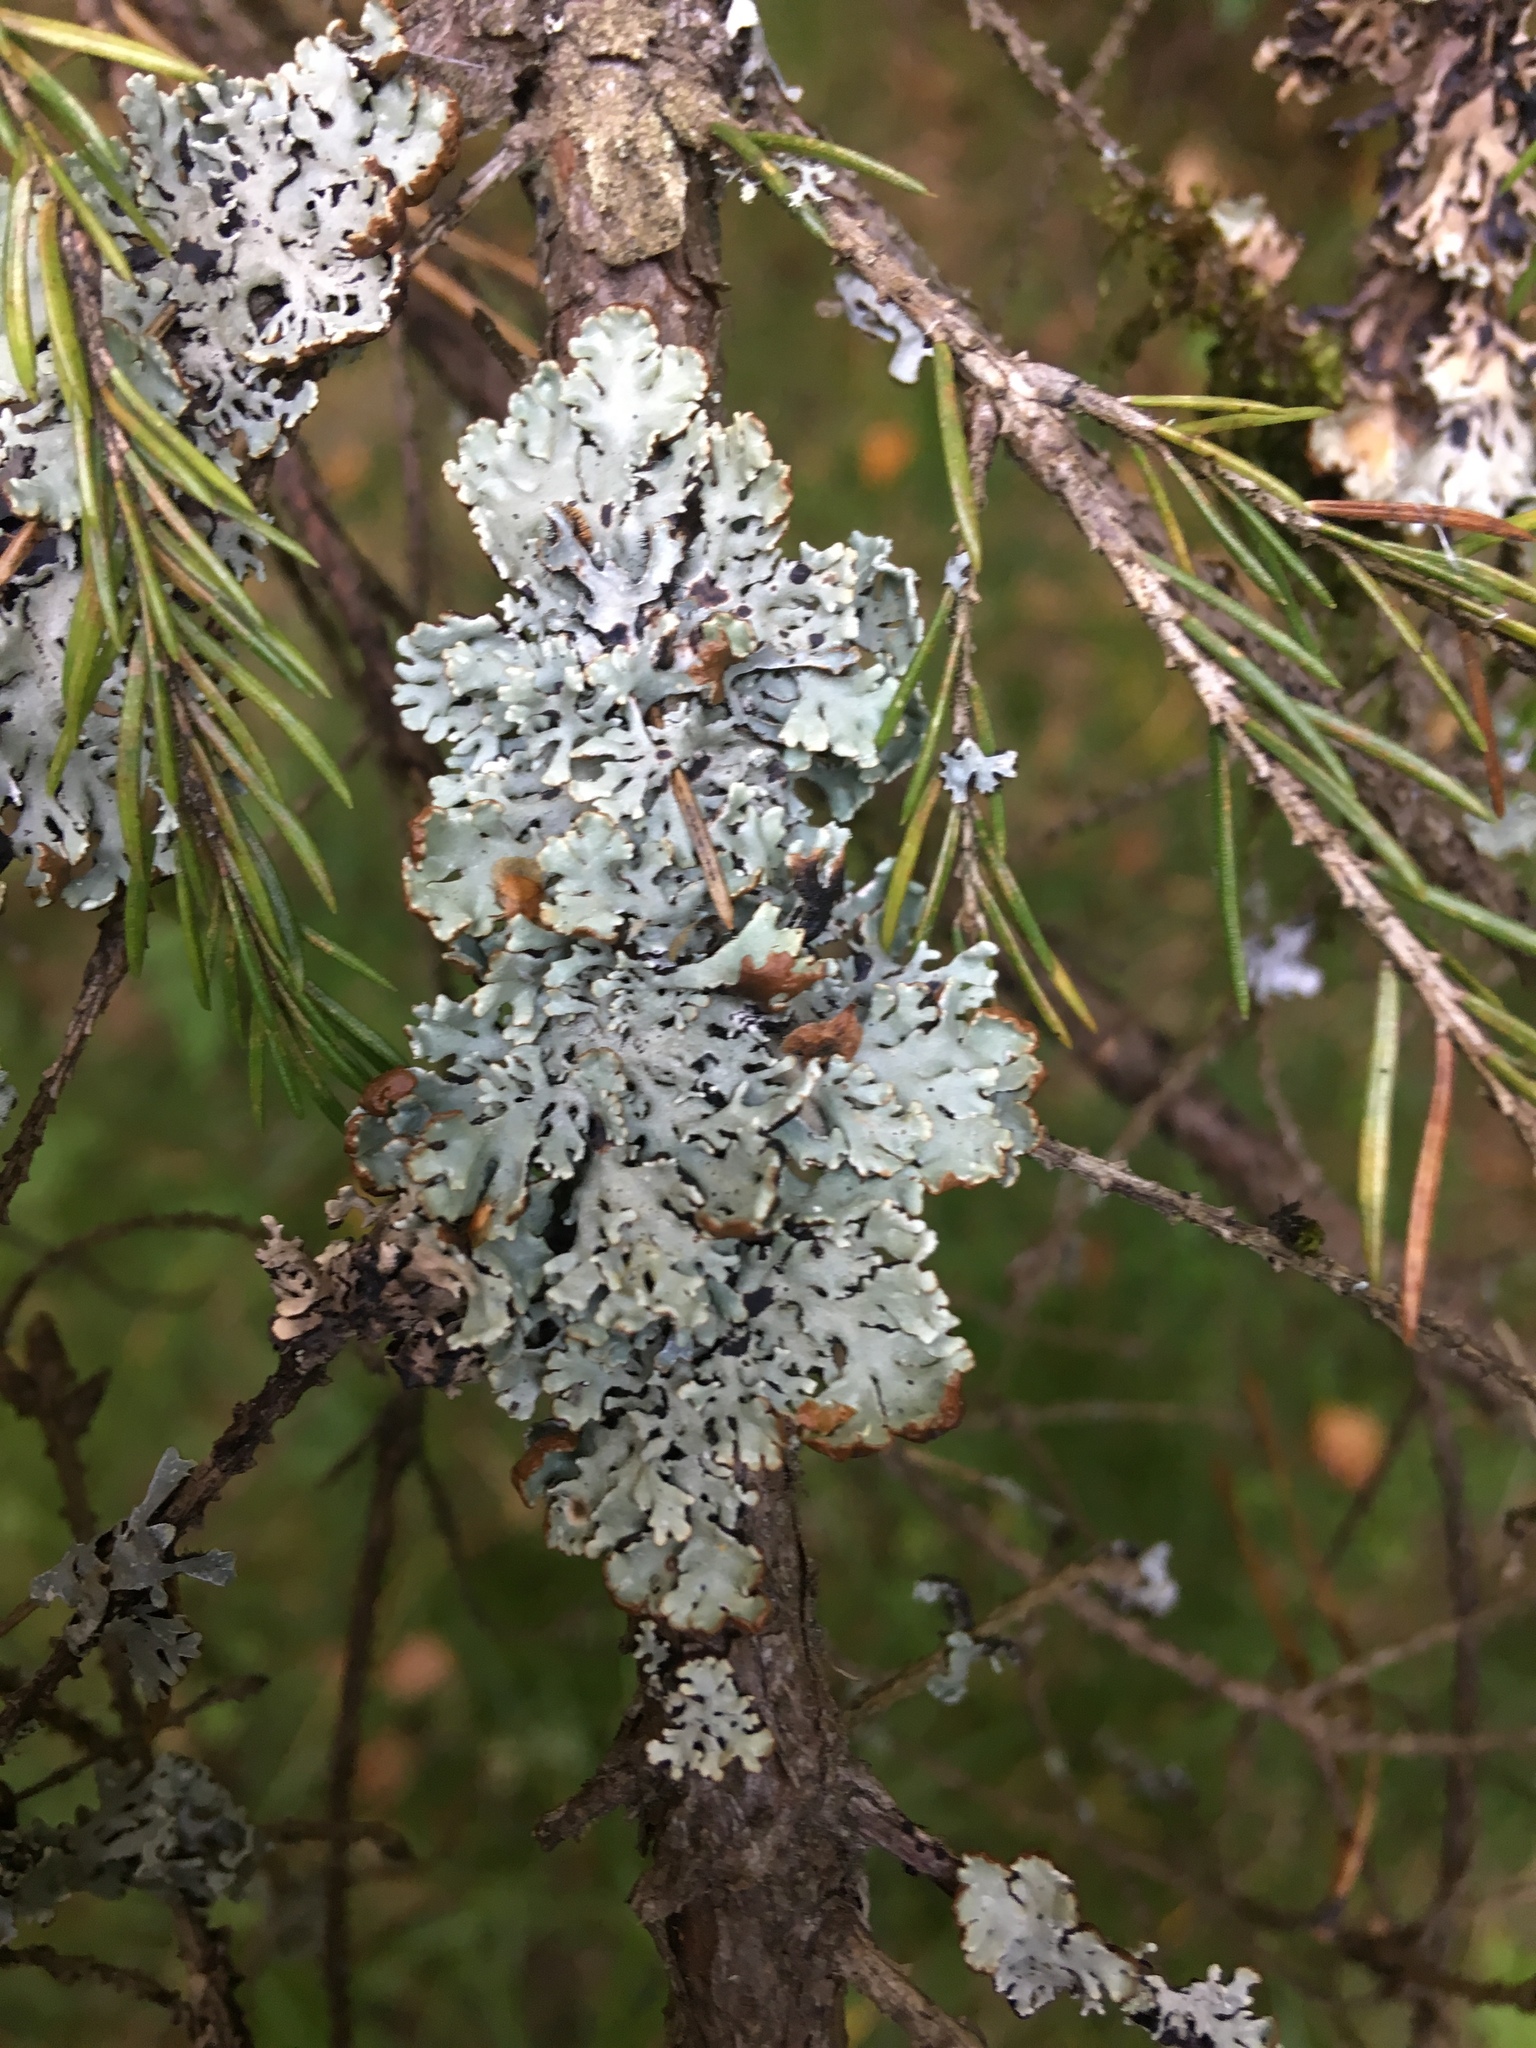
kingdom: Fungi
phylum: Ascomycota
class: Lecanoromycetes
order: Lecanorales
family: Parmeliaceae
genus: Hypogymnia
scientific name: Hypogymnia physodes
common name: Dark crottle
